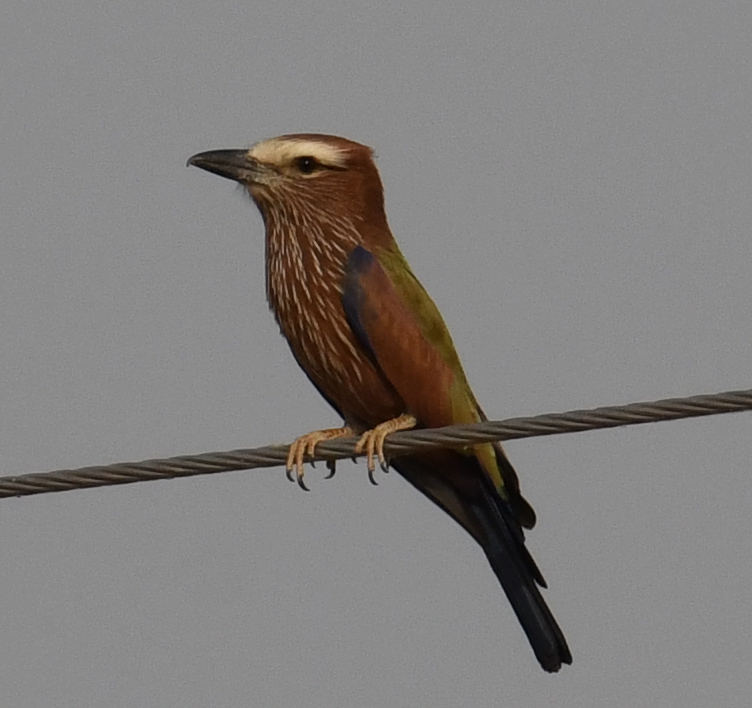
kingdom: Animalia
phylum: Chordata
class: Aves
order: Coraciiformes
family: Coraciidae
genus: Coracias
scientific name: Coracias naevius
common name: Purple roller
